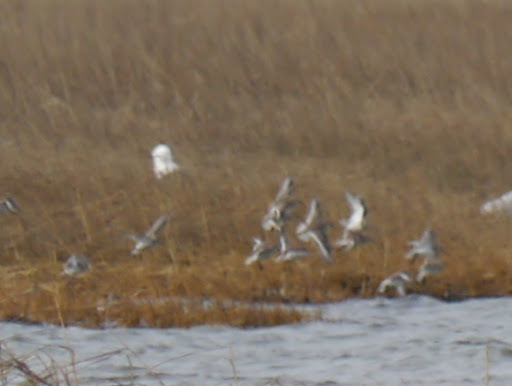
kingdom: Animalia
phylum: Chordata
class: Aves
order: Charadriiformes
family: Scolopacidae
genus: Calidris
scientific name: Calidris alpina
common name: Dunlin
